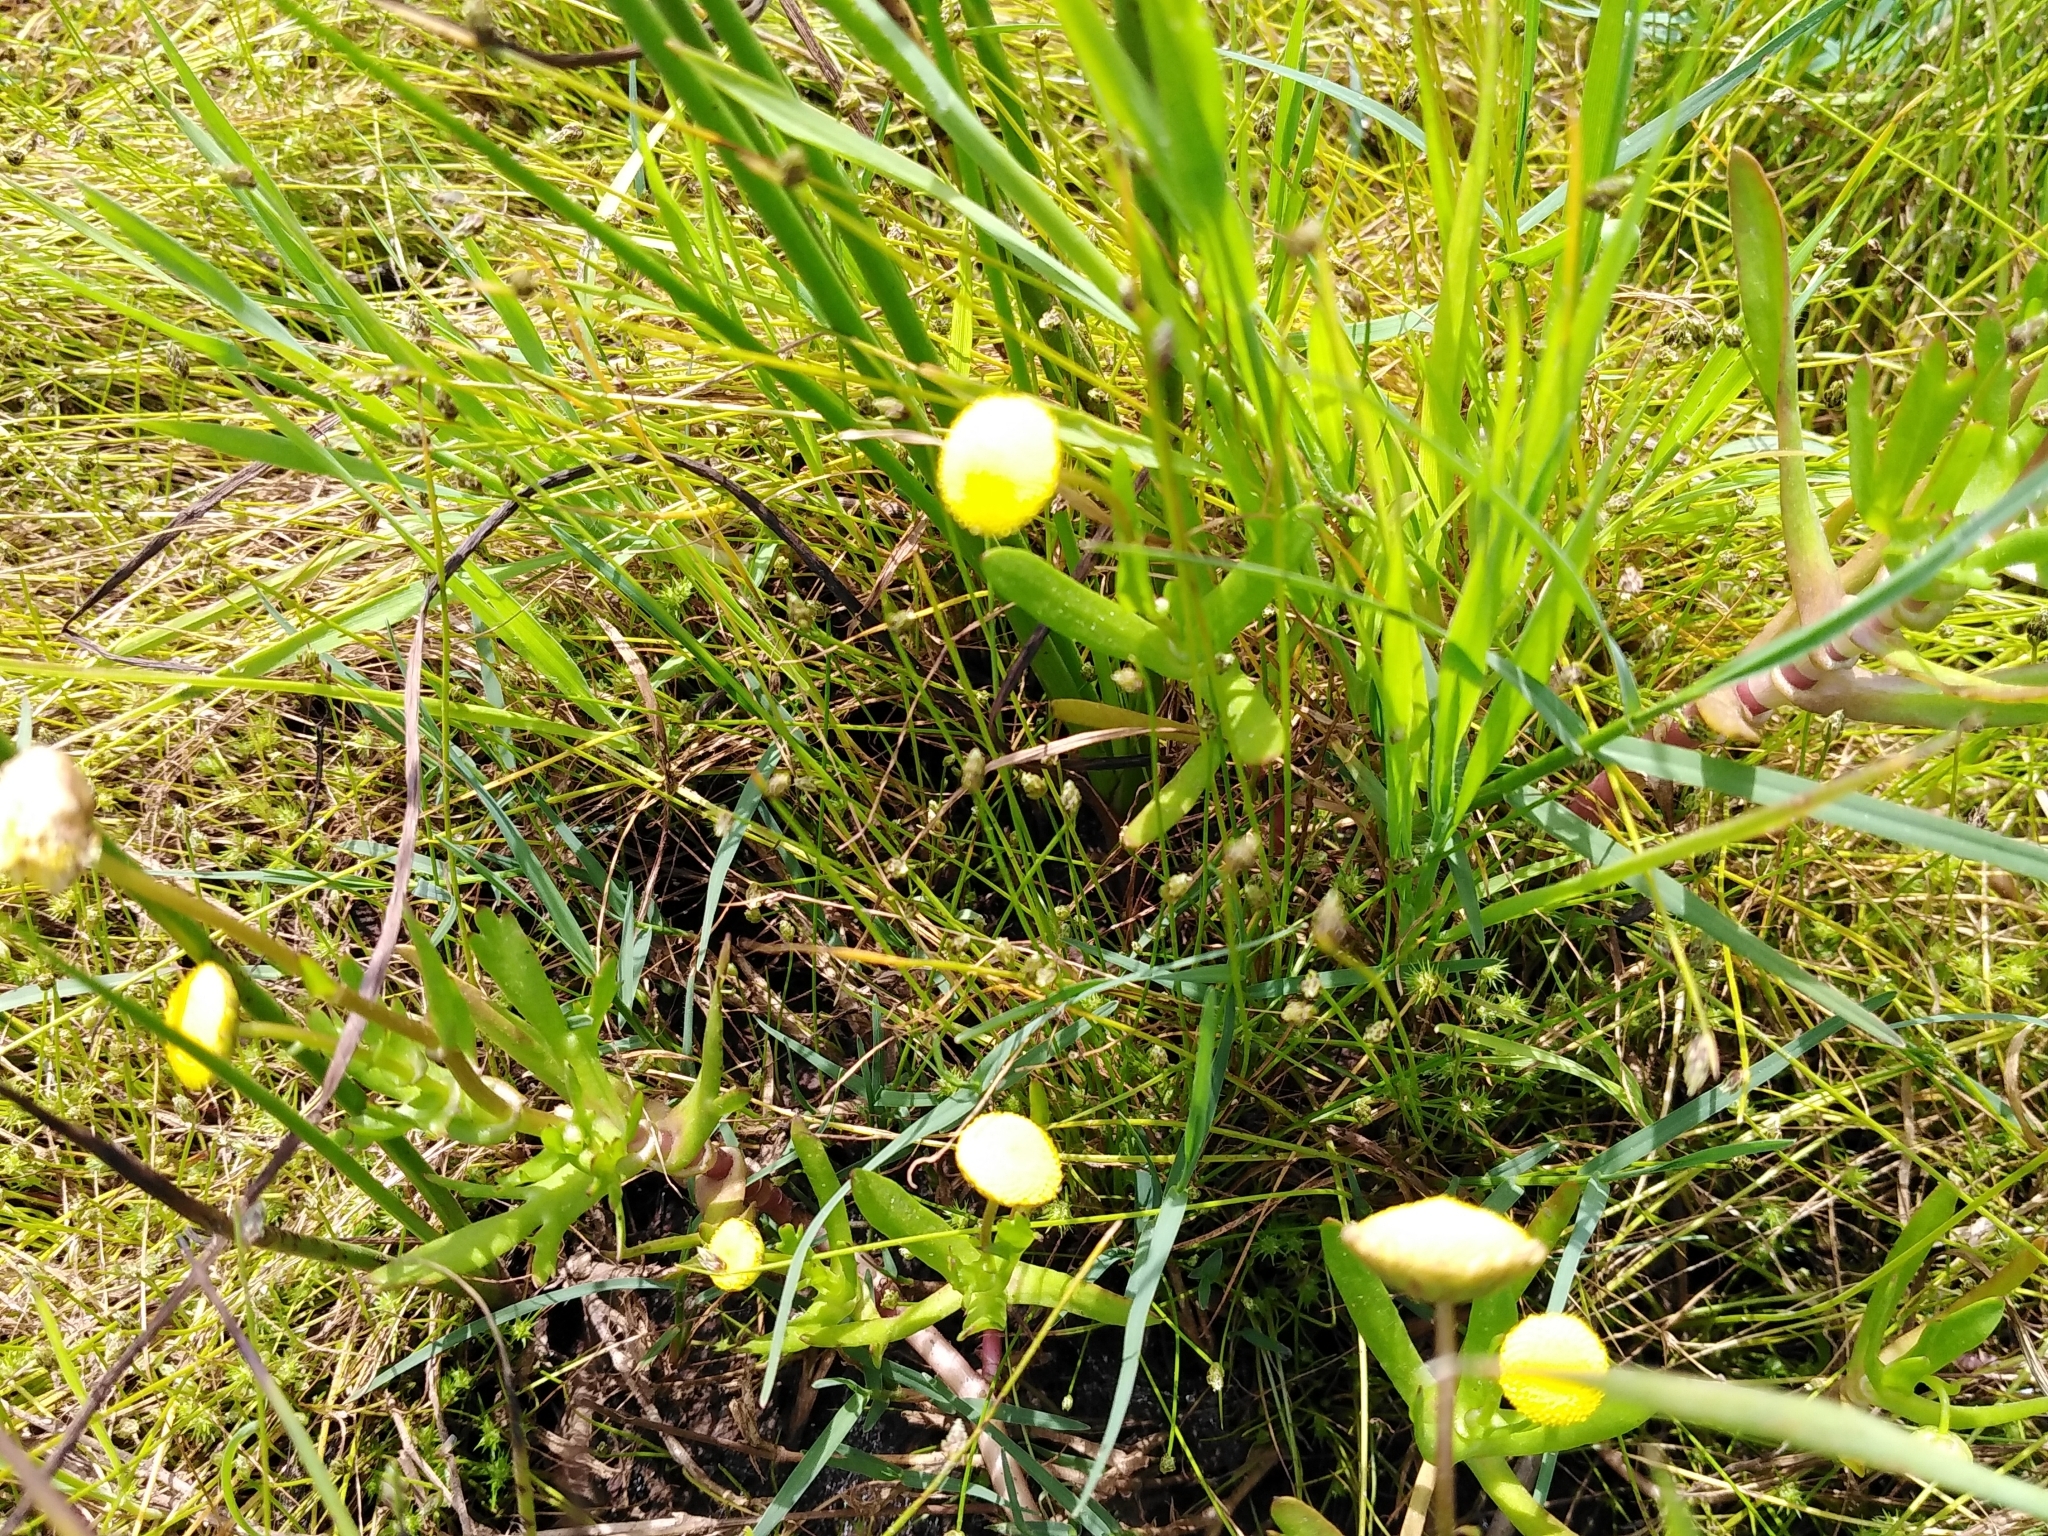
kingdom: Plantae
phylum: Tracheophyta
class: Magnoliopsida
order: Asterales
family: Asteraceae
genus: Cotula
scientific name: Cotula coronopifolia
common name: Buttonweed
